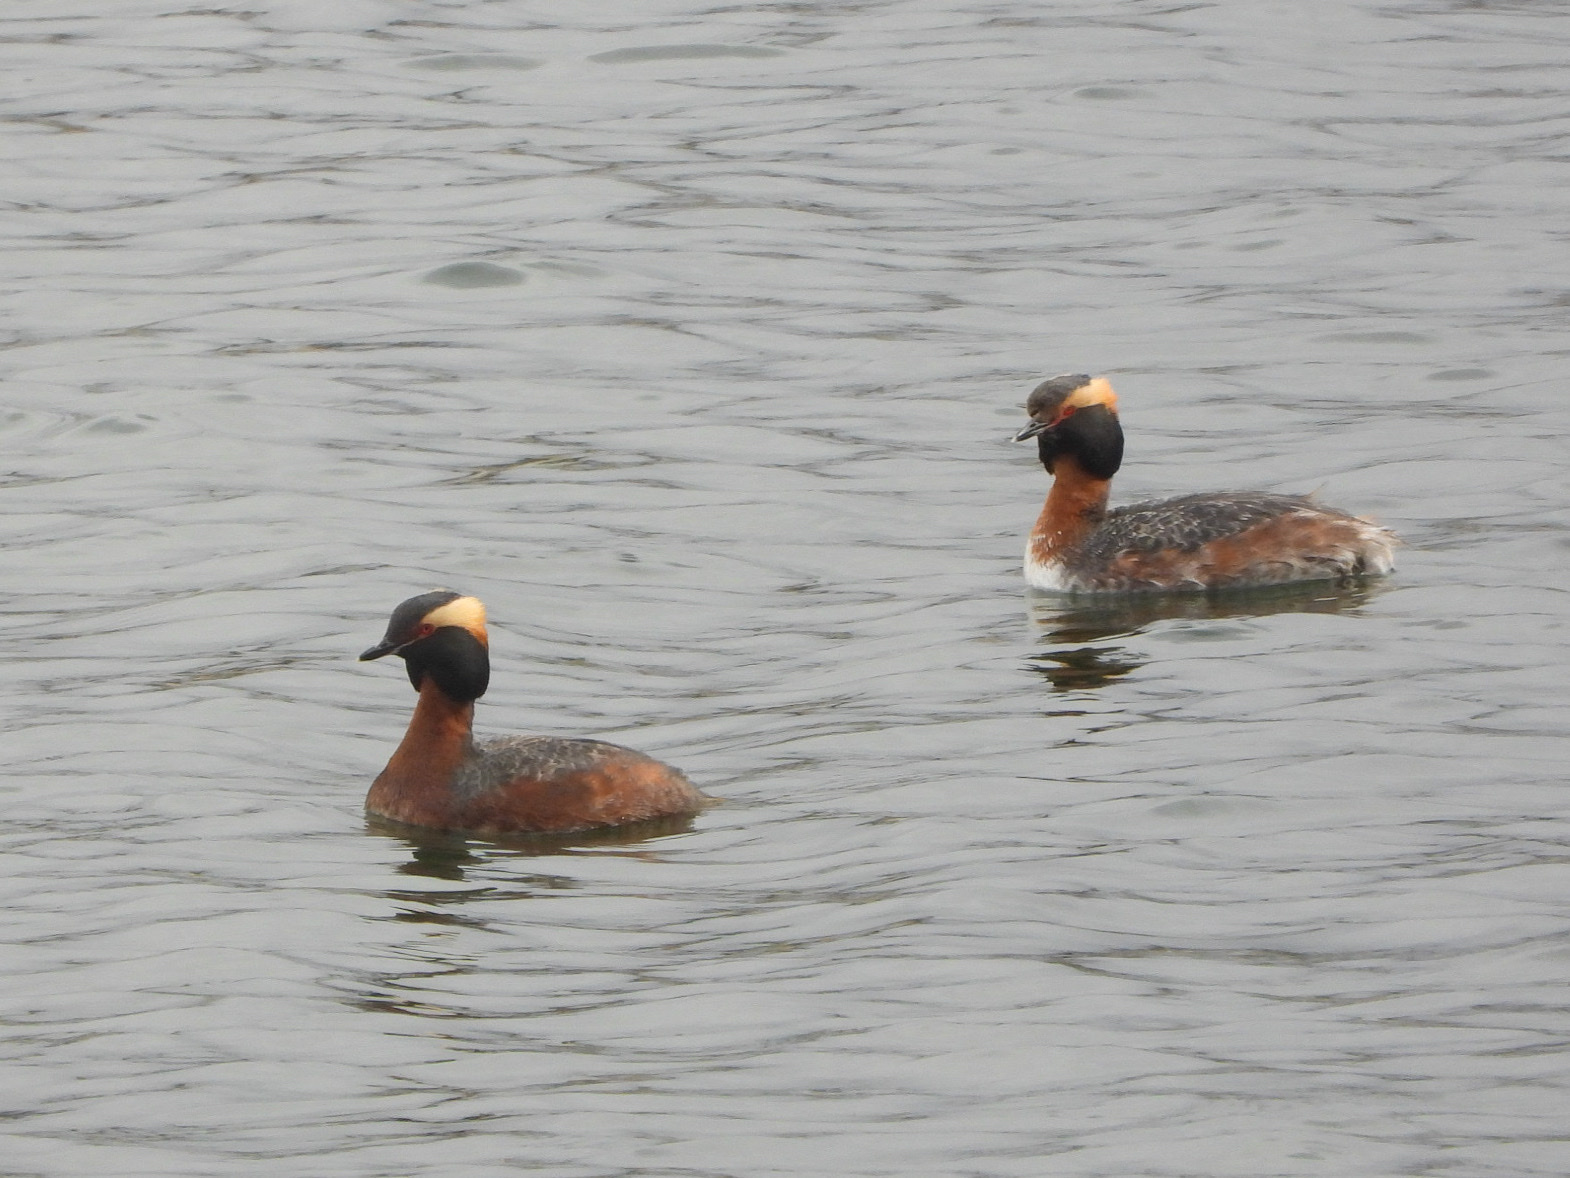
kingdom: Animalia
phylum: Chordata
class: Aves
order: Podicipediformes
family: Podicipedidae
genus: Podiceps
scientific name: Podiceps auritus
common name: Horned grebe
